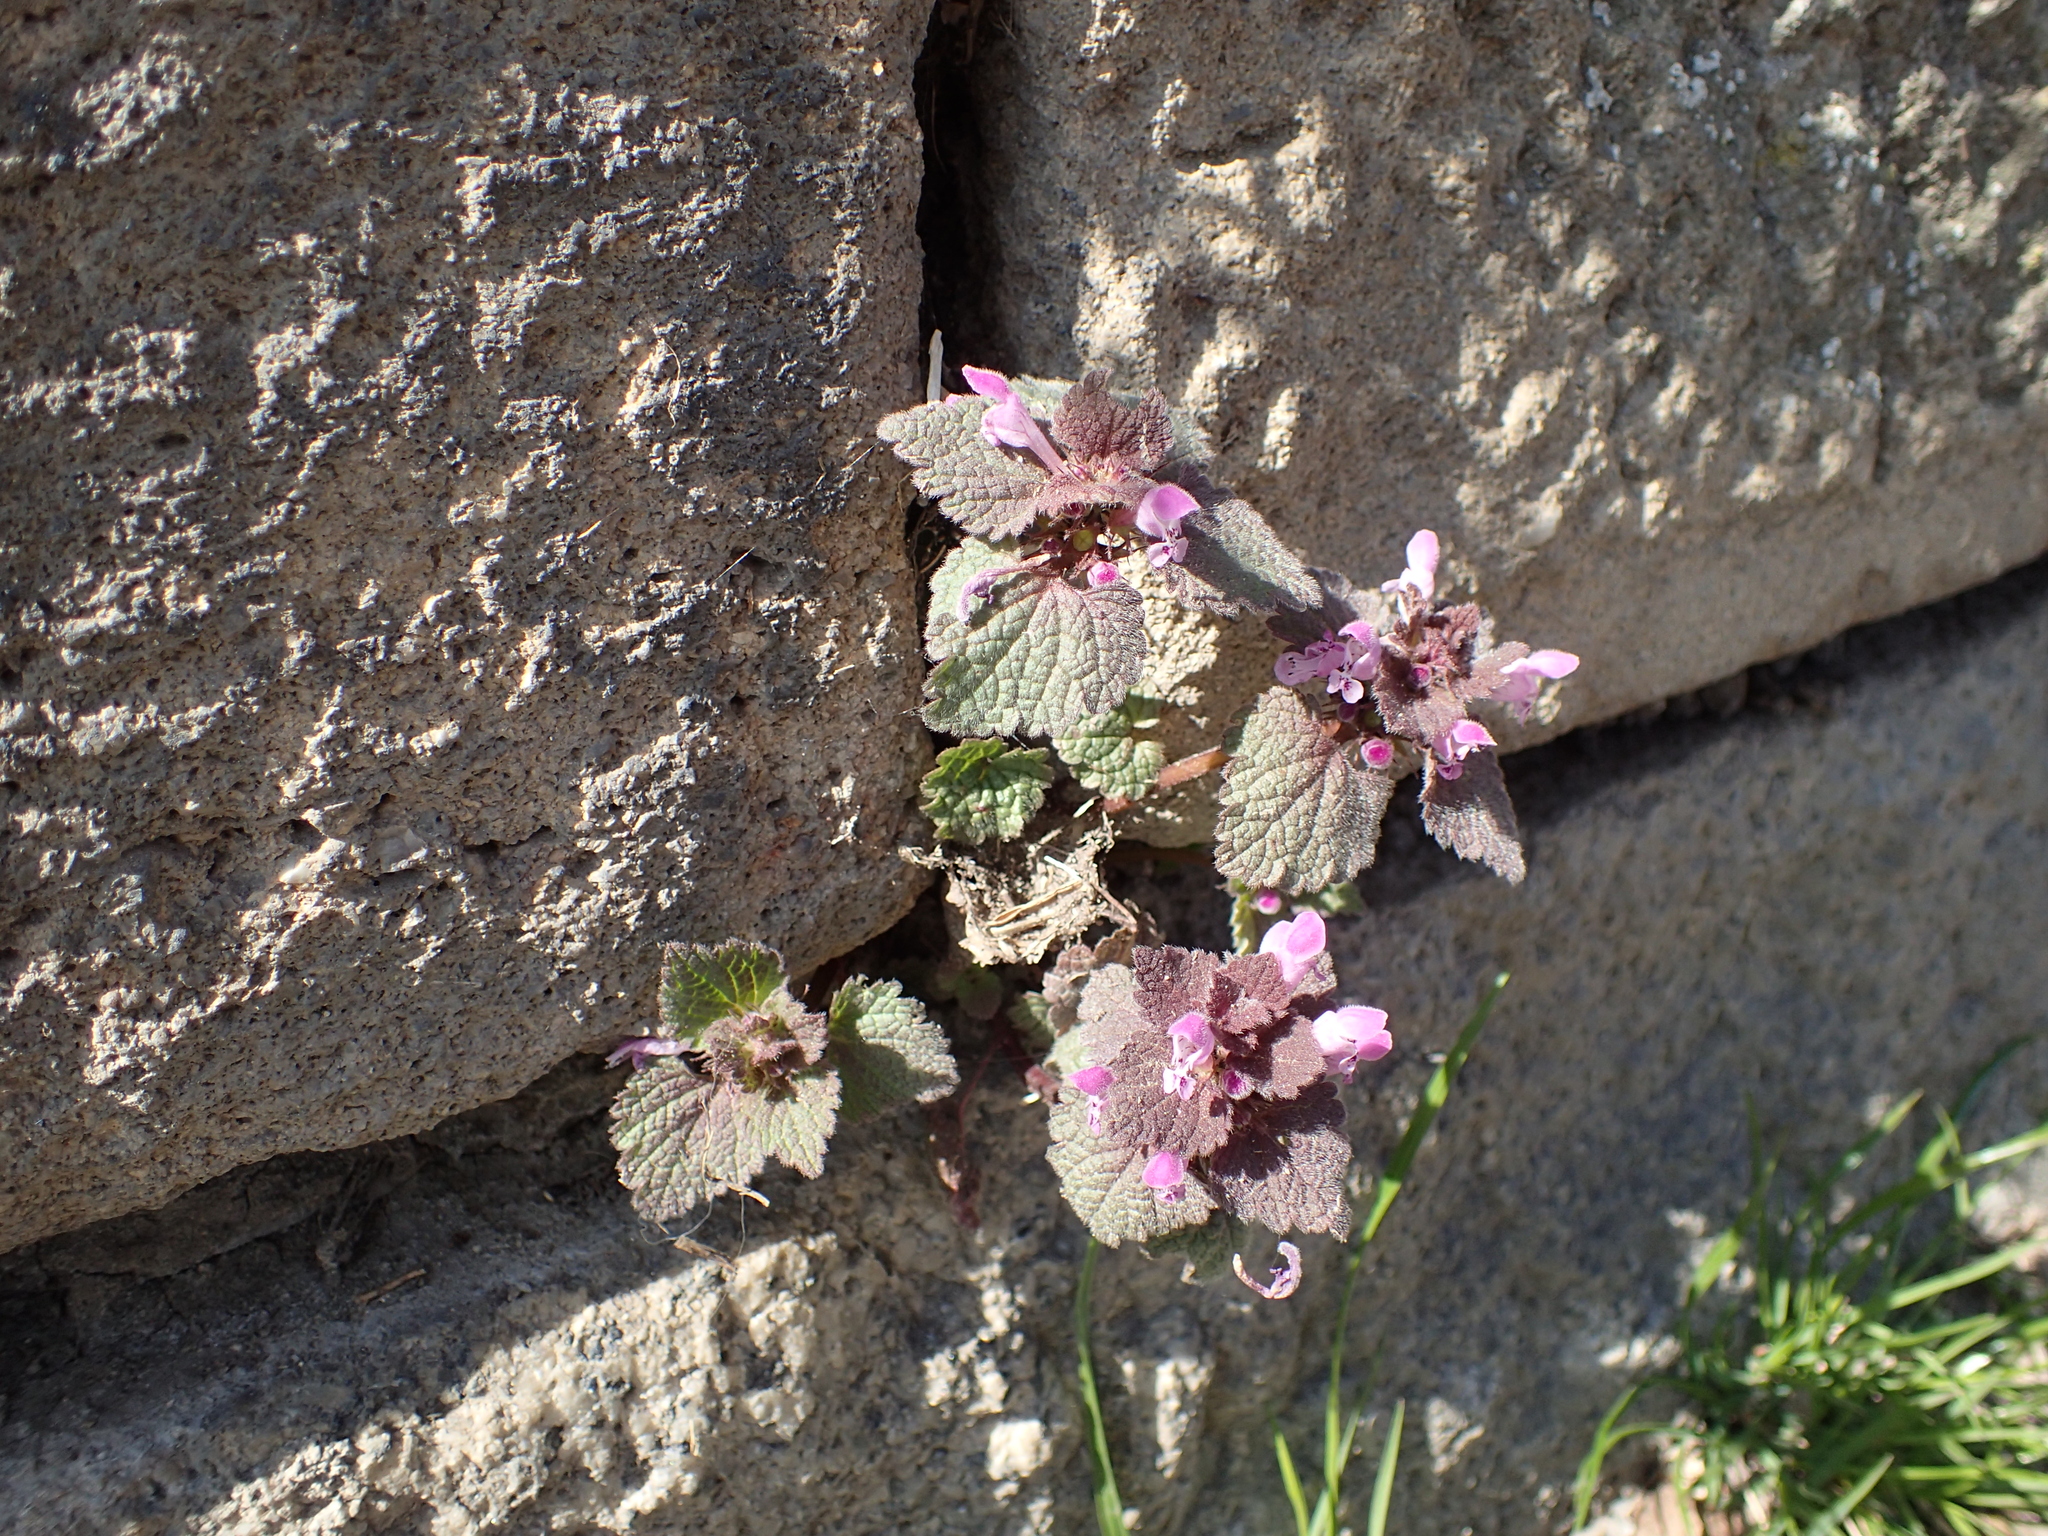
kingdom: Plantae
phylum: Tracheophyta
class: Magnoliopsida
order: Lamiales
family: Lamiaceae
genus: Lamium
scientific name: Lamium purpureum
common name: Red dead-nettle
